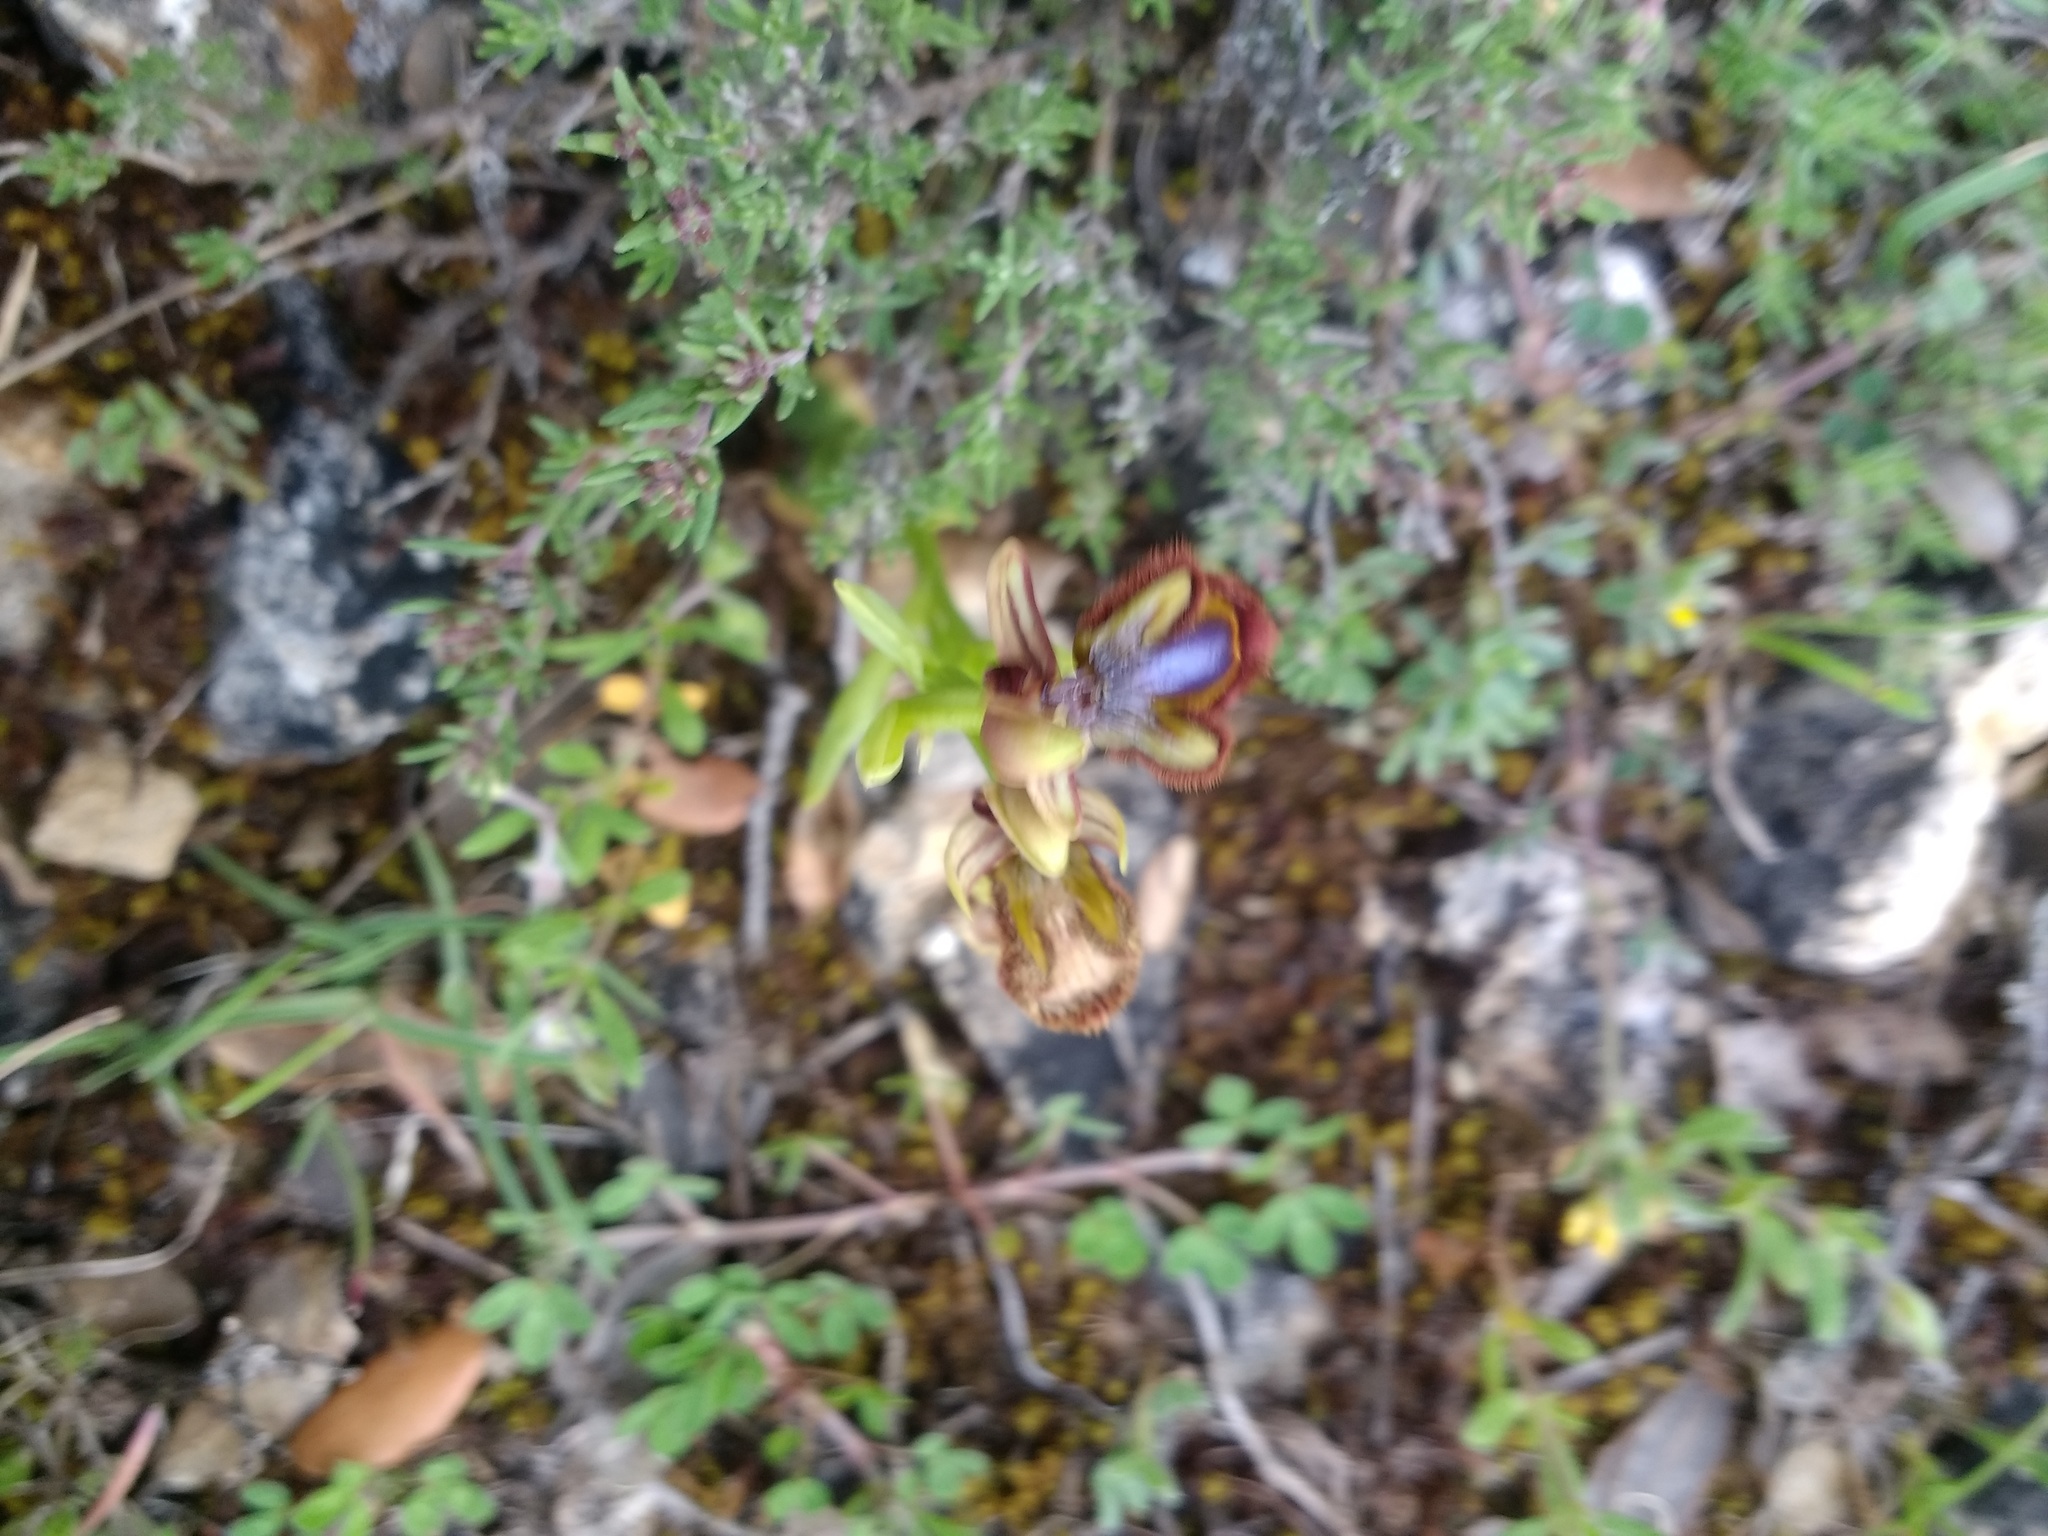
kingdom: Plantae
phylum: Tracheophyta
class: Liliopsida
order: Asparagales
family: Orchidaceae
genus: Ophrys
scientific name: Ophrys speculum
